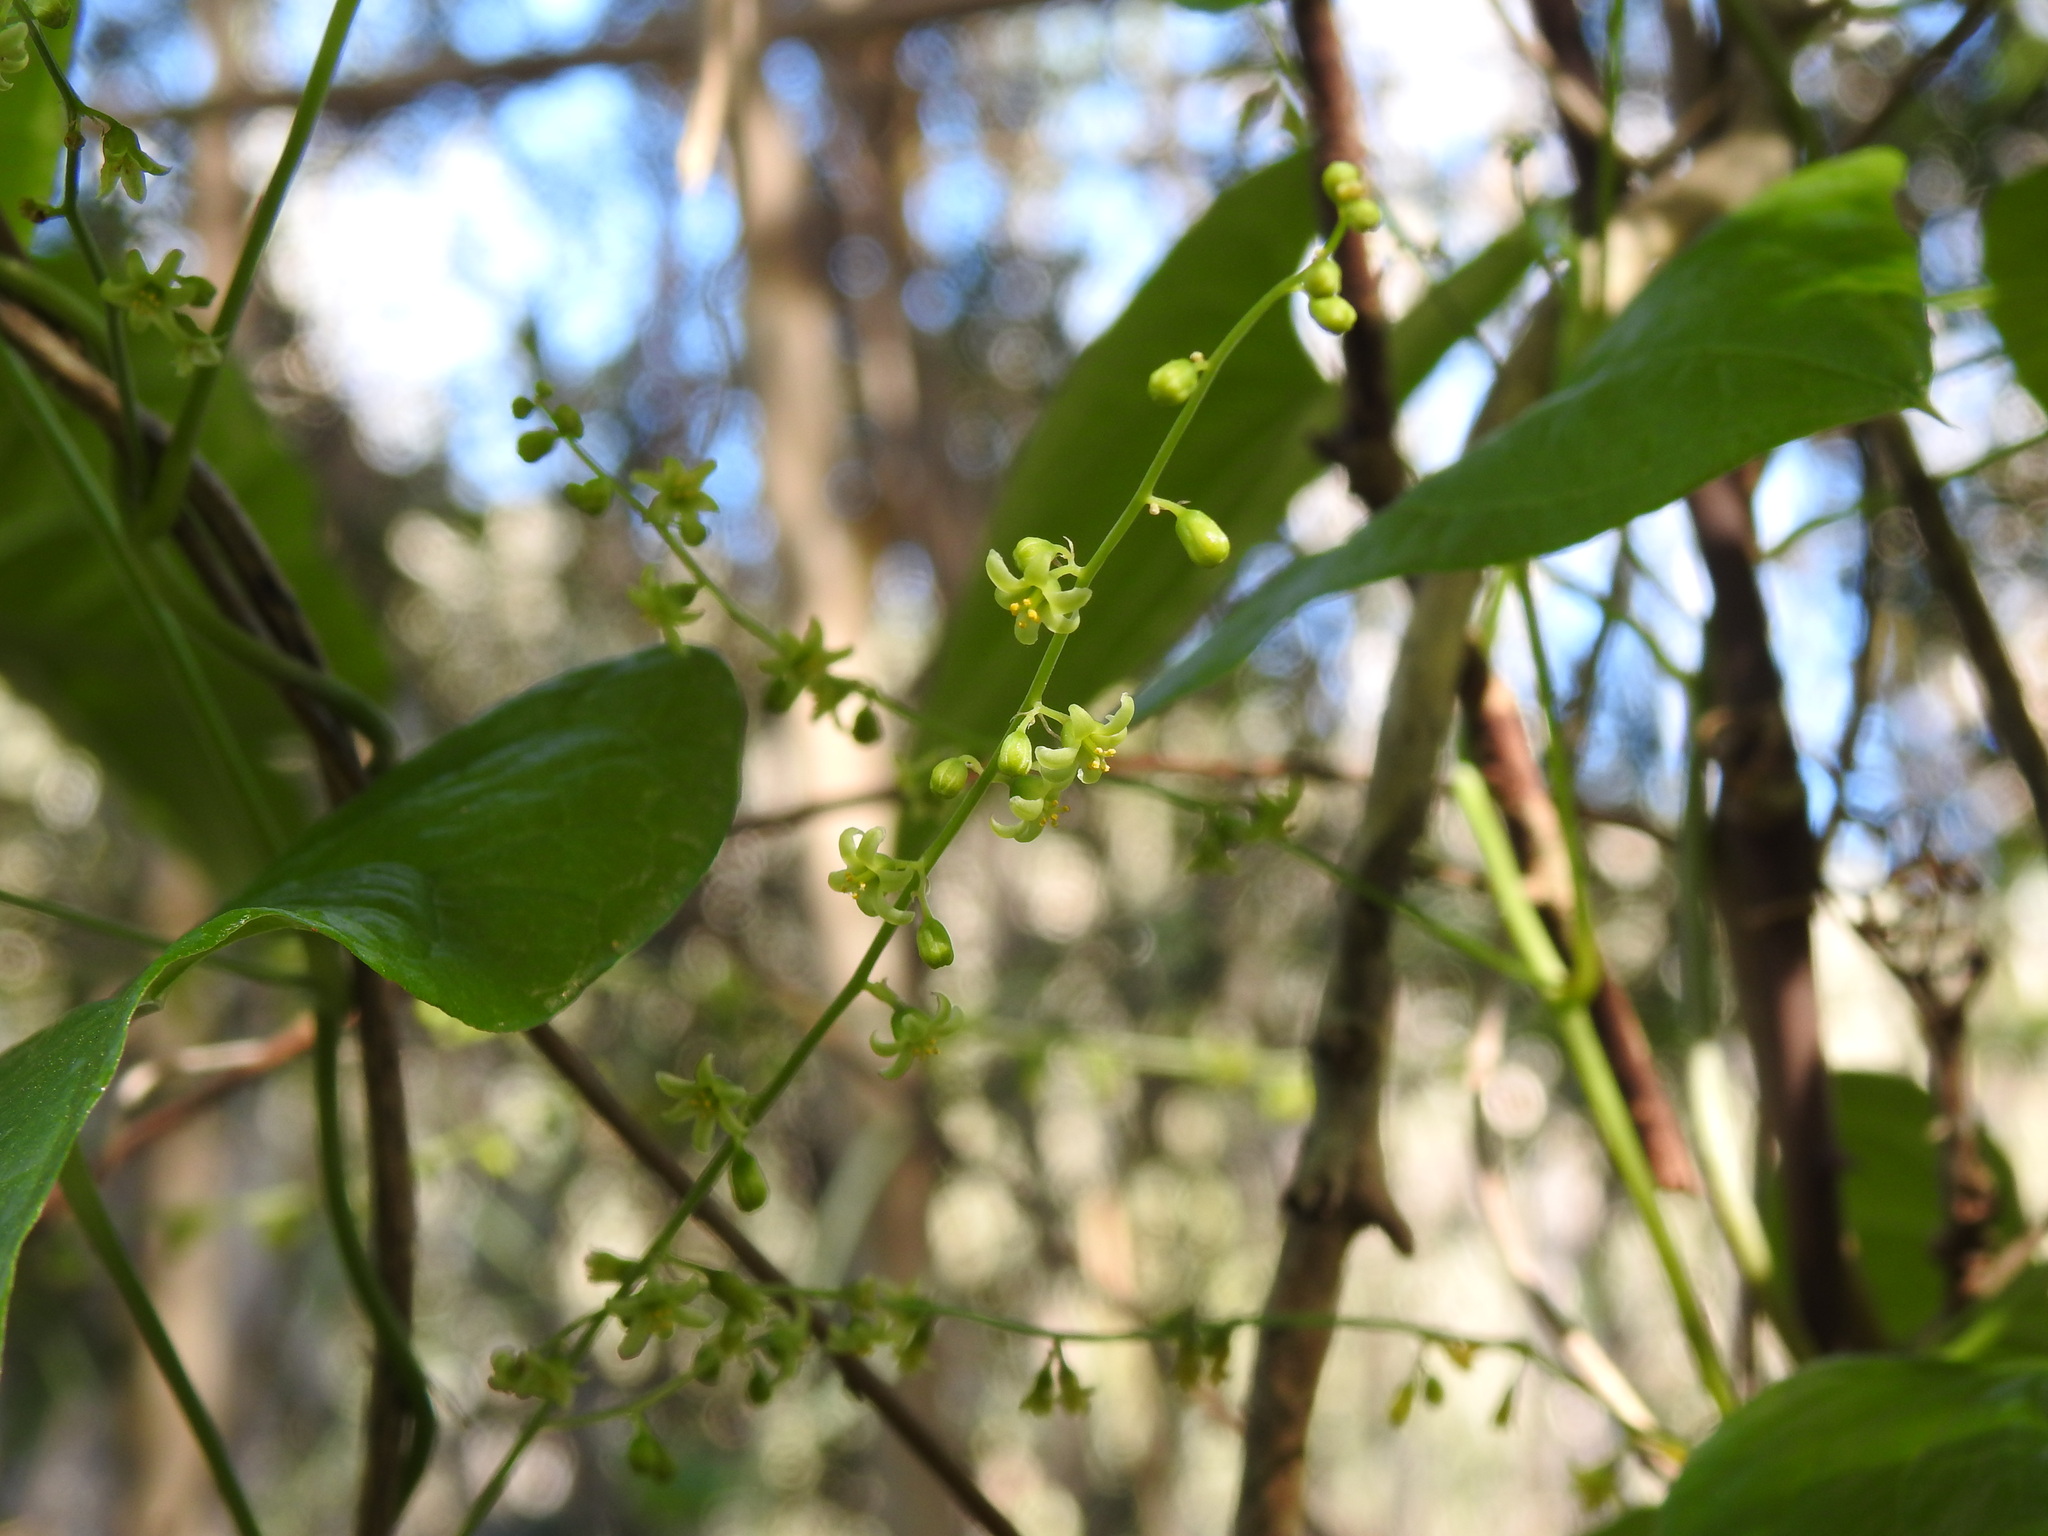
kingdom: Plantae
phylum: Tracheophyta
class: Liliopsida
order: Dioscoreales
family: Dioscoreaceae
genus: Dioscorea
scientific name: Dioscorea communis
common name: Black-bindweed
